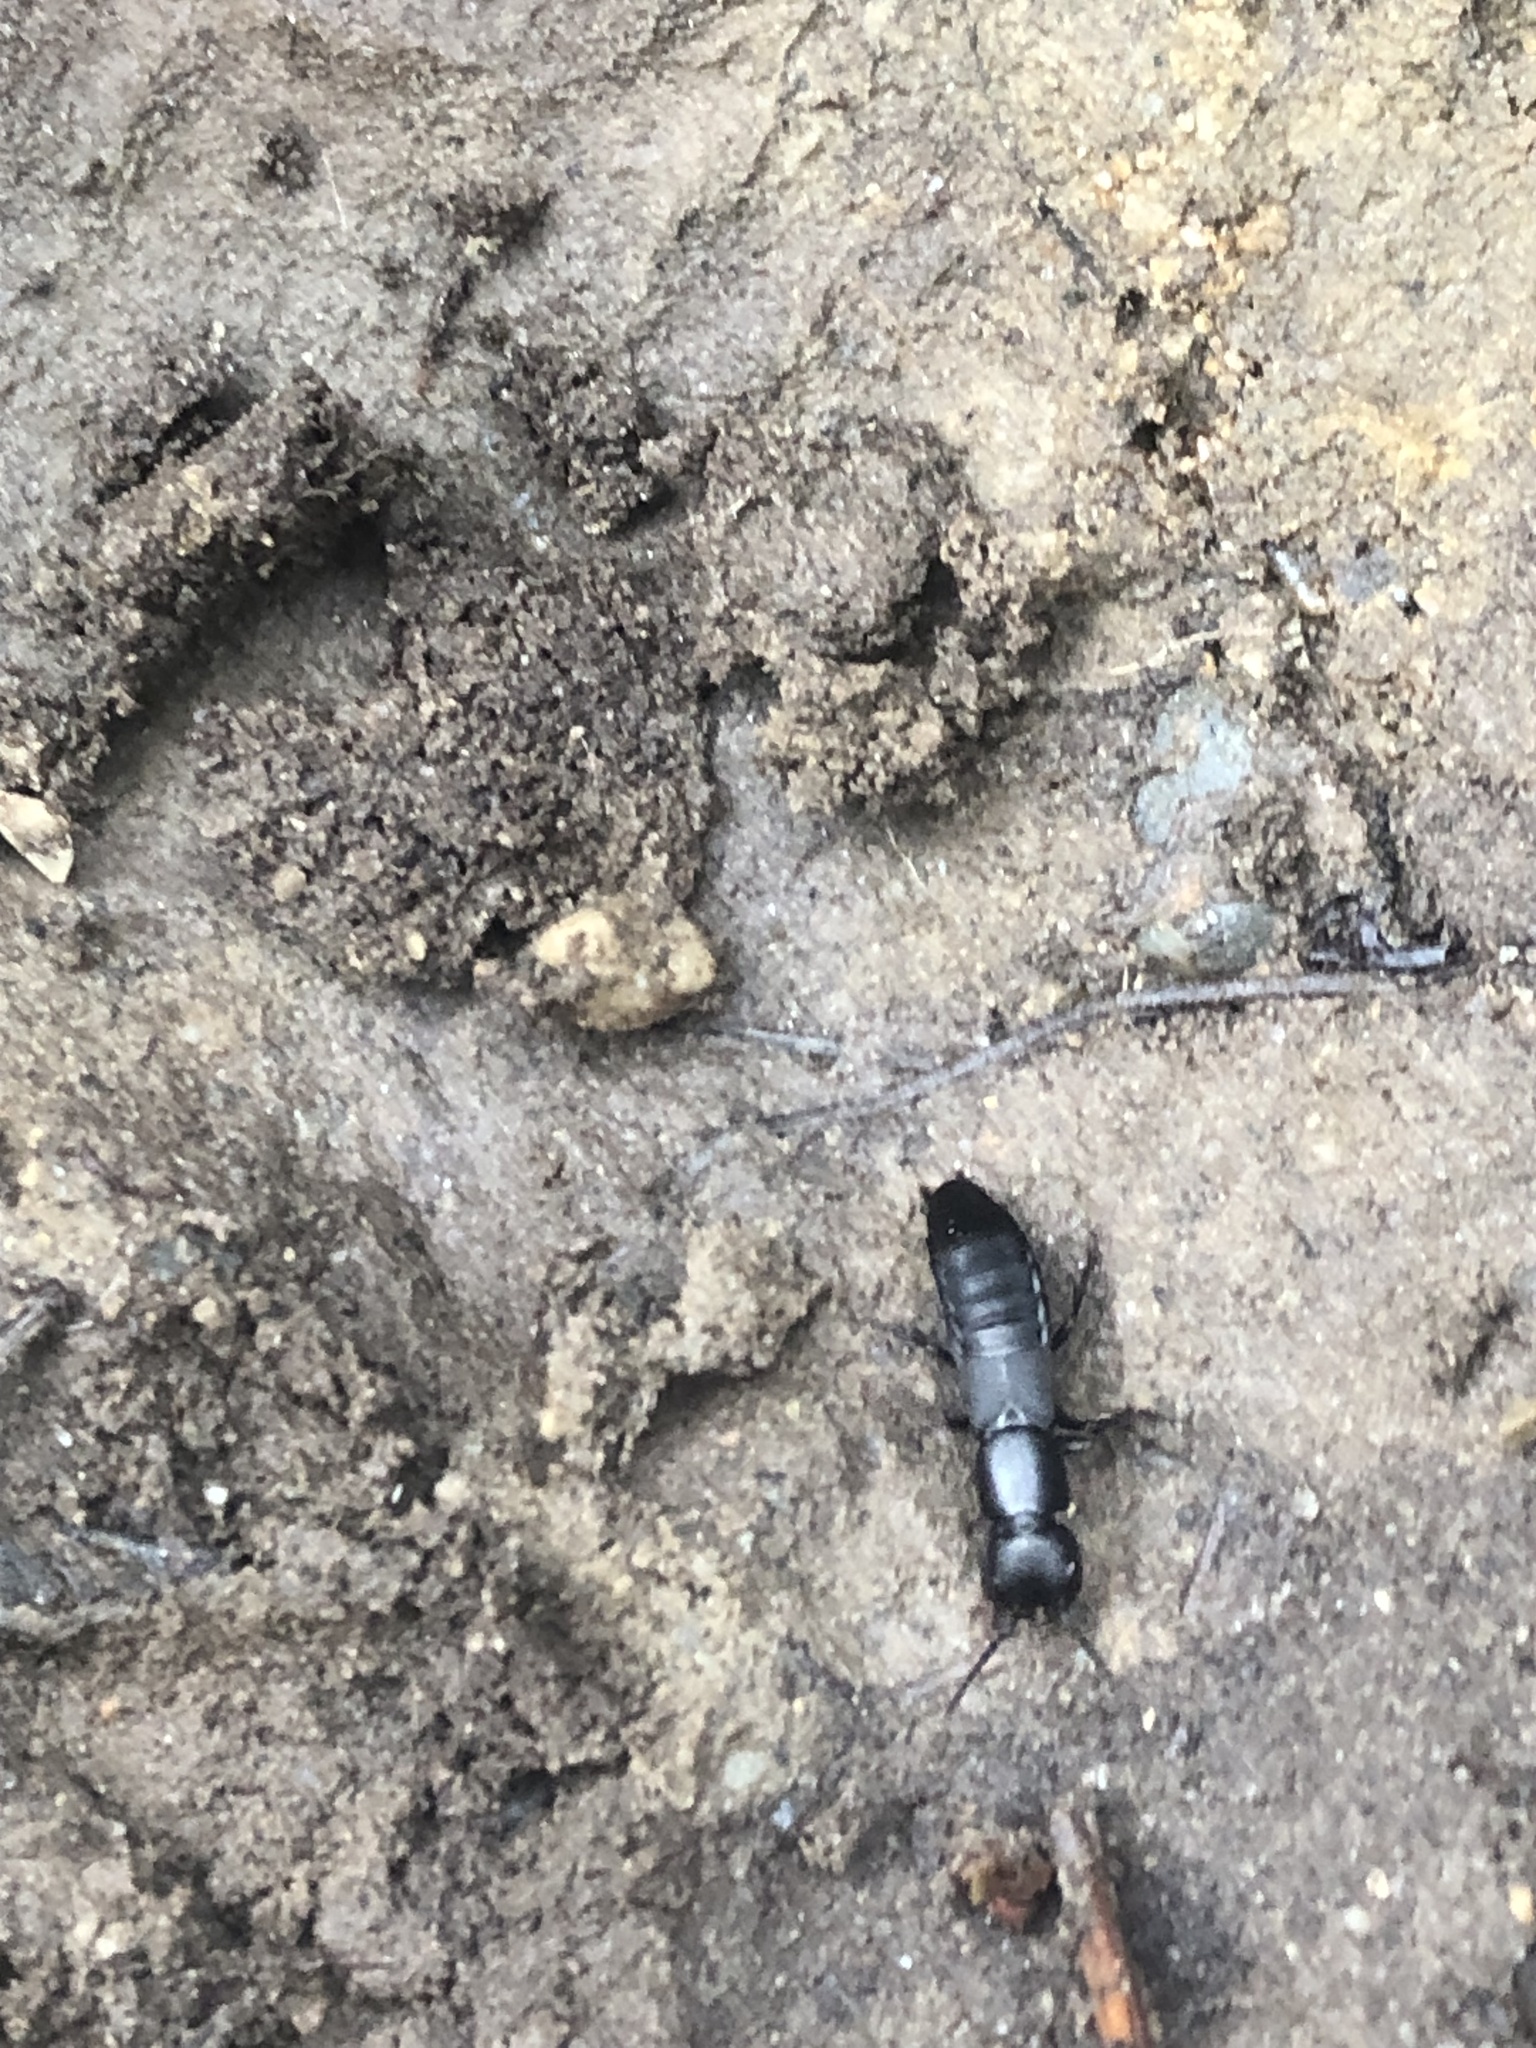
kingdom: Animalia
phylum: Arthropoda
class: Insecta
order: Coleoptera
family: Staphylinidae
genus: Ocypus
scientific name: Ocypus nitens
